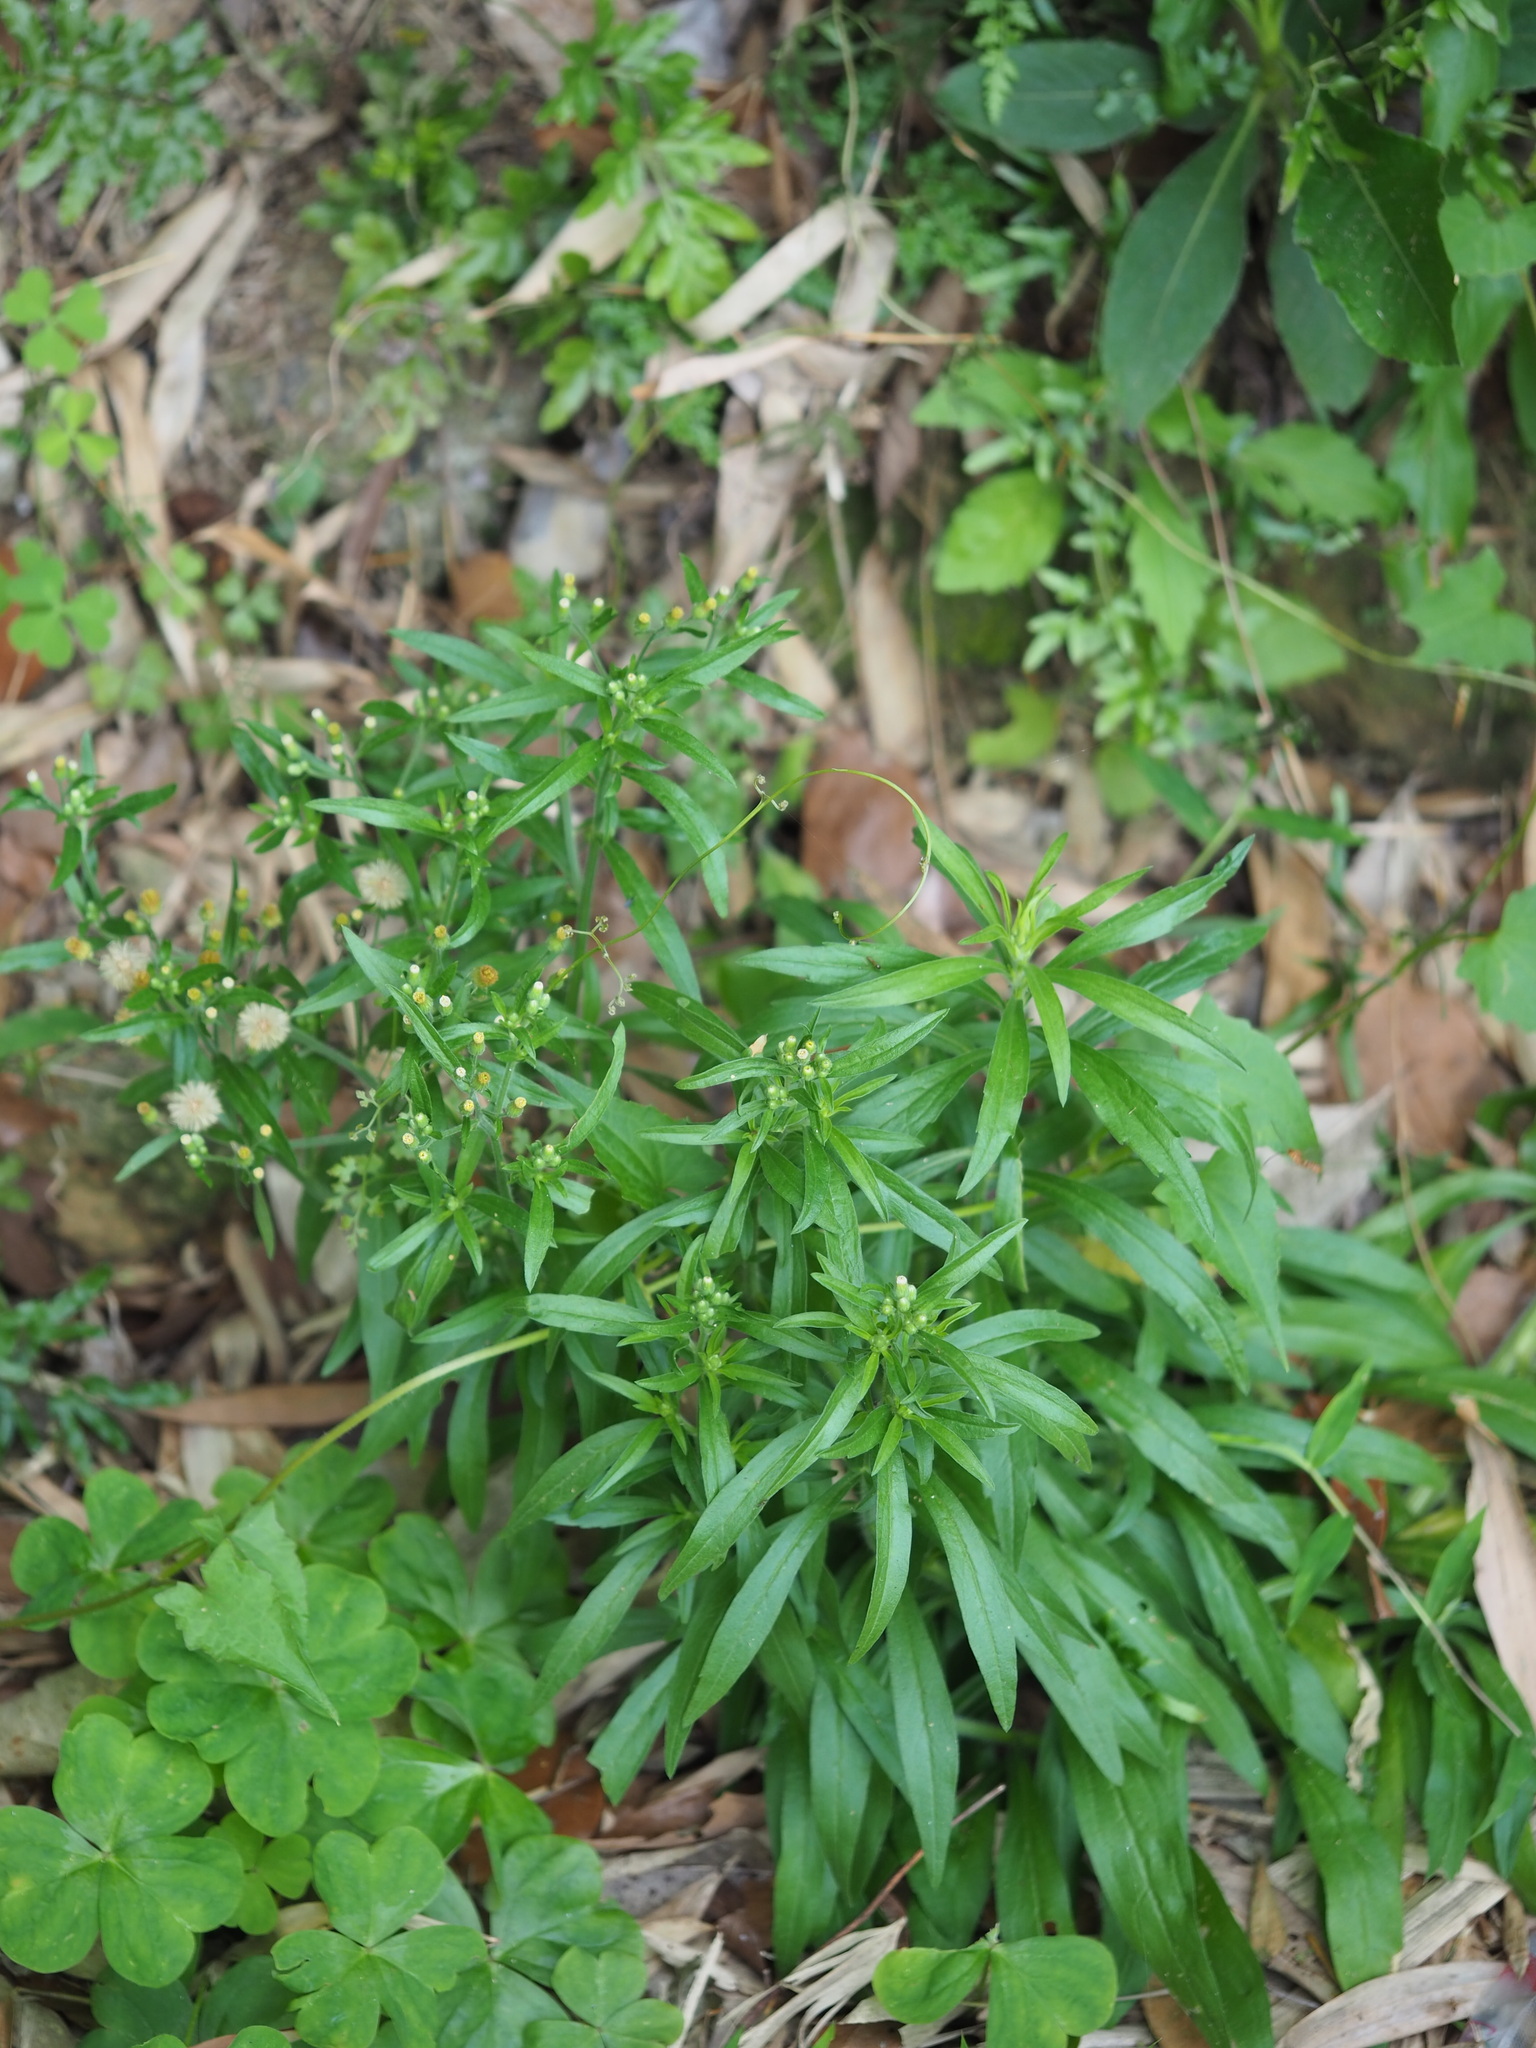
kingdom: Plantae
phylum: Tracheophyta
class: Magnoliopsida
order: Asterales
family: Asteraceae
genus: Erigeron
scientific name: Erigeron sumatrensis
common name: Daisy
